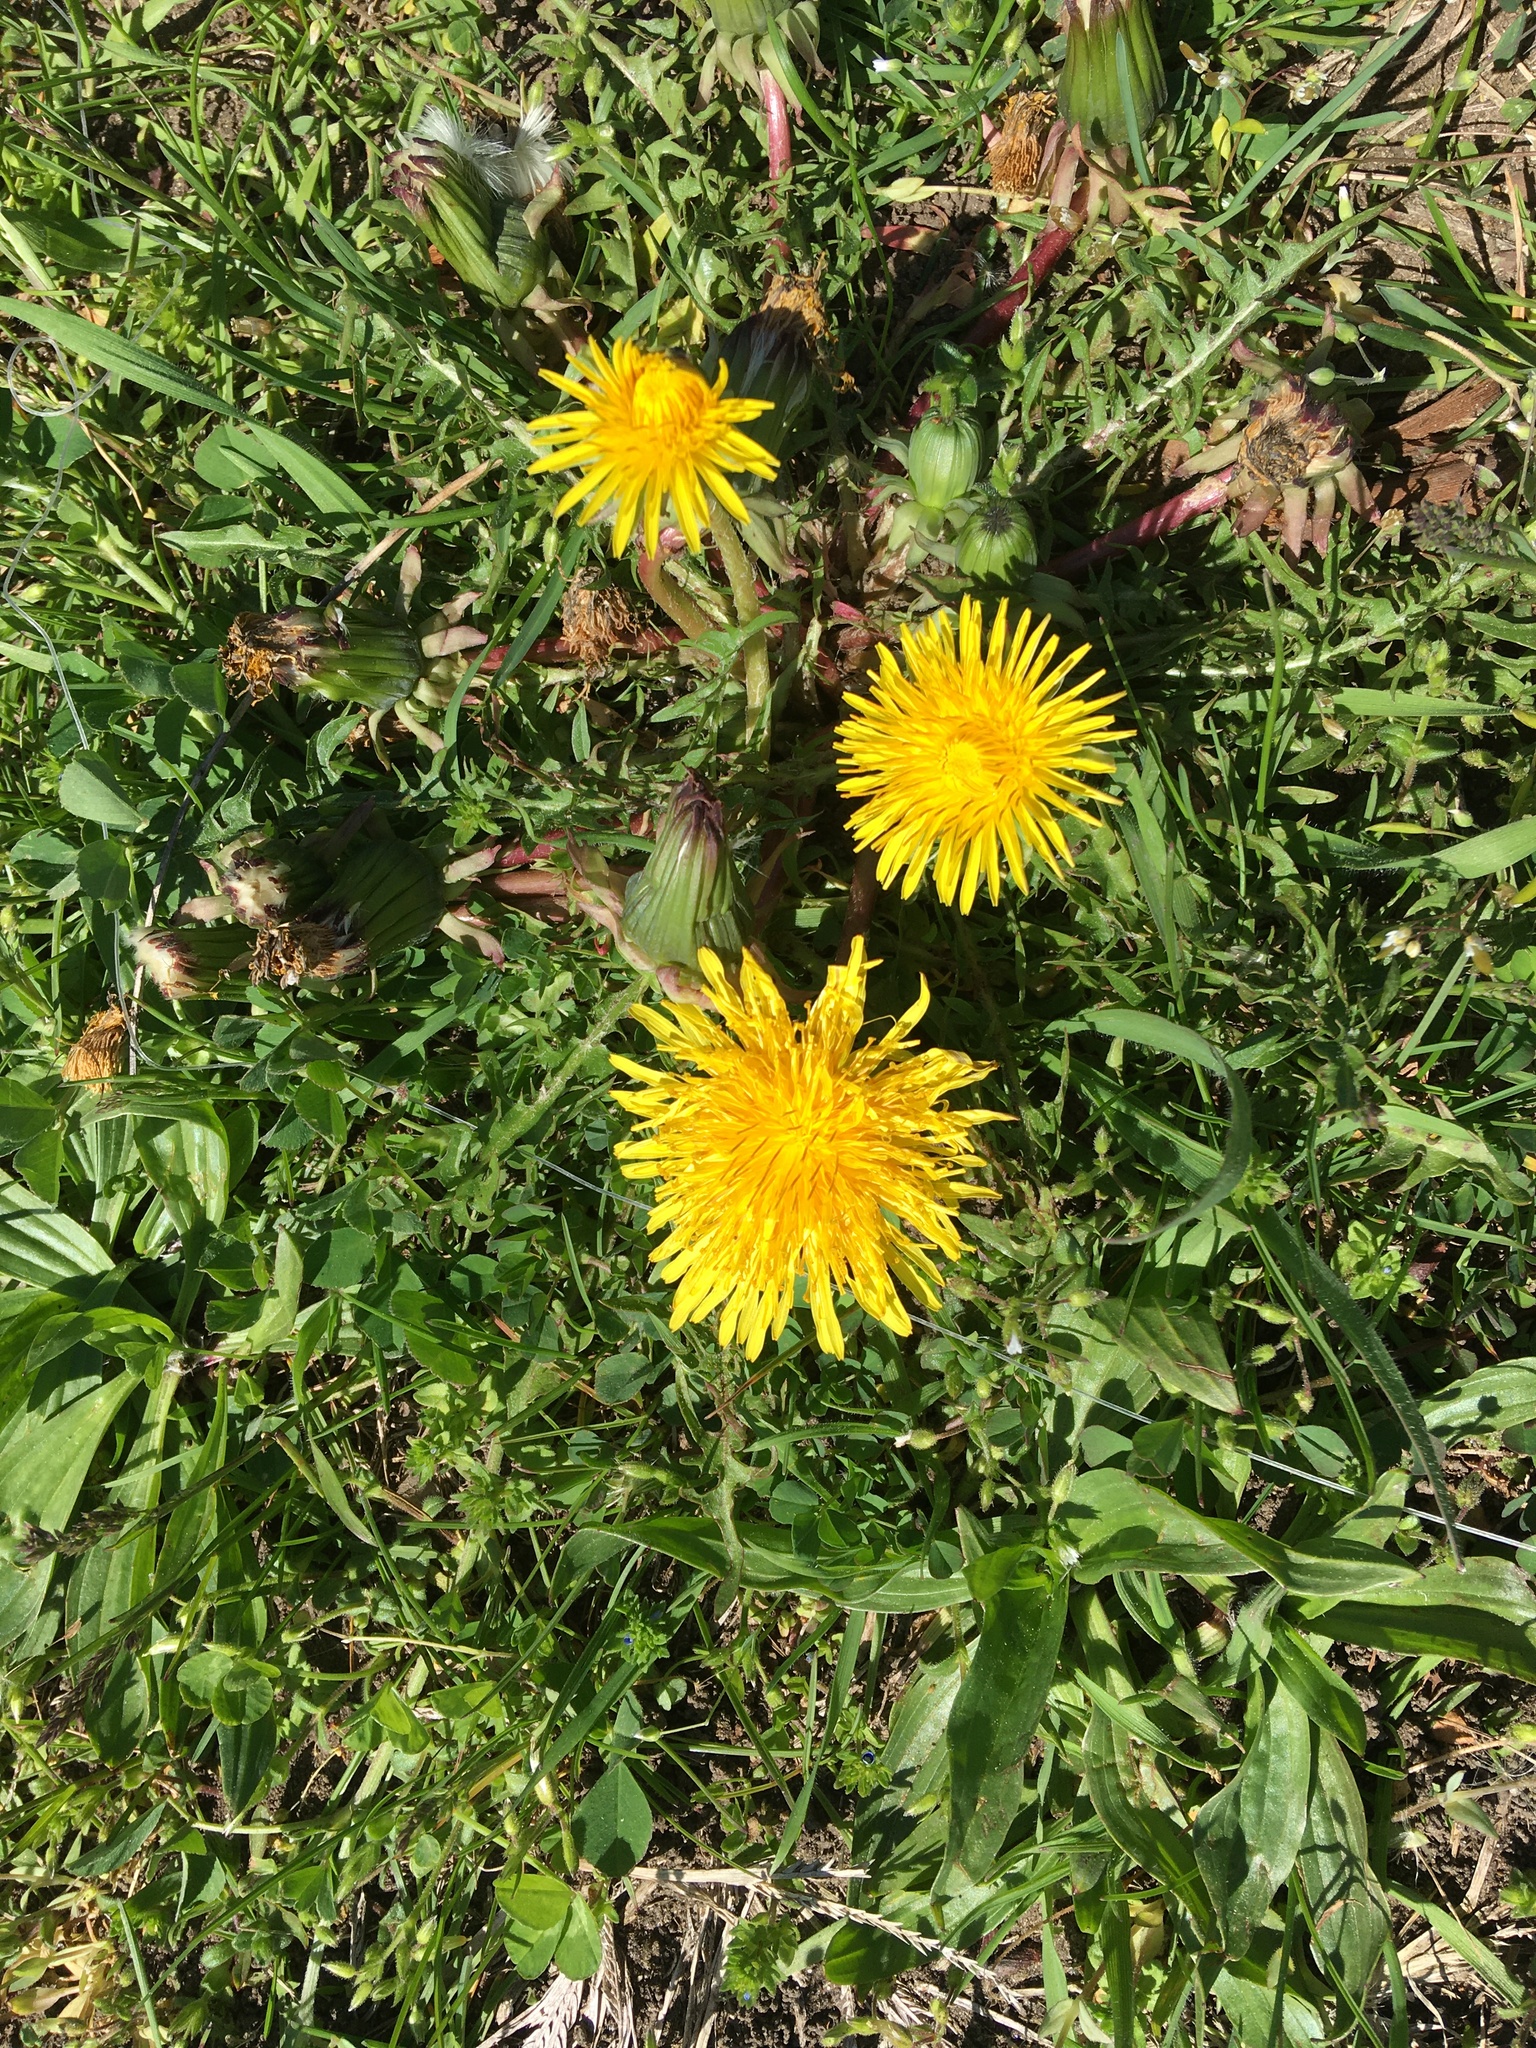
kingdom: Plantae
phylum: Tracheophyta
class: Magnoliopsida
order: Asterales
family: Asteraceae
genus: Taraxacum
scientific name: Taraxacum
